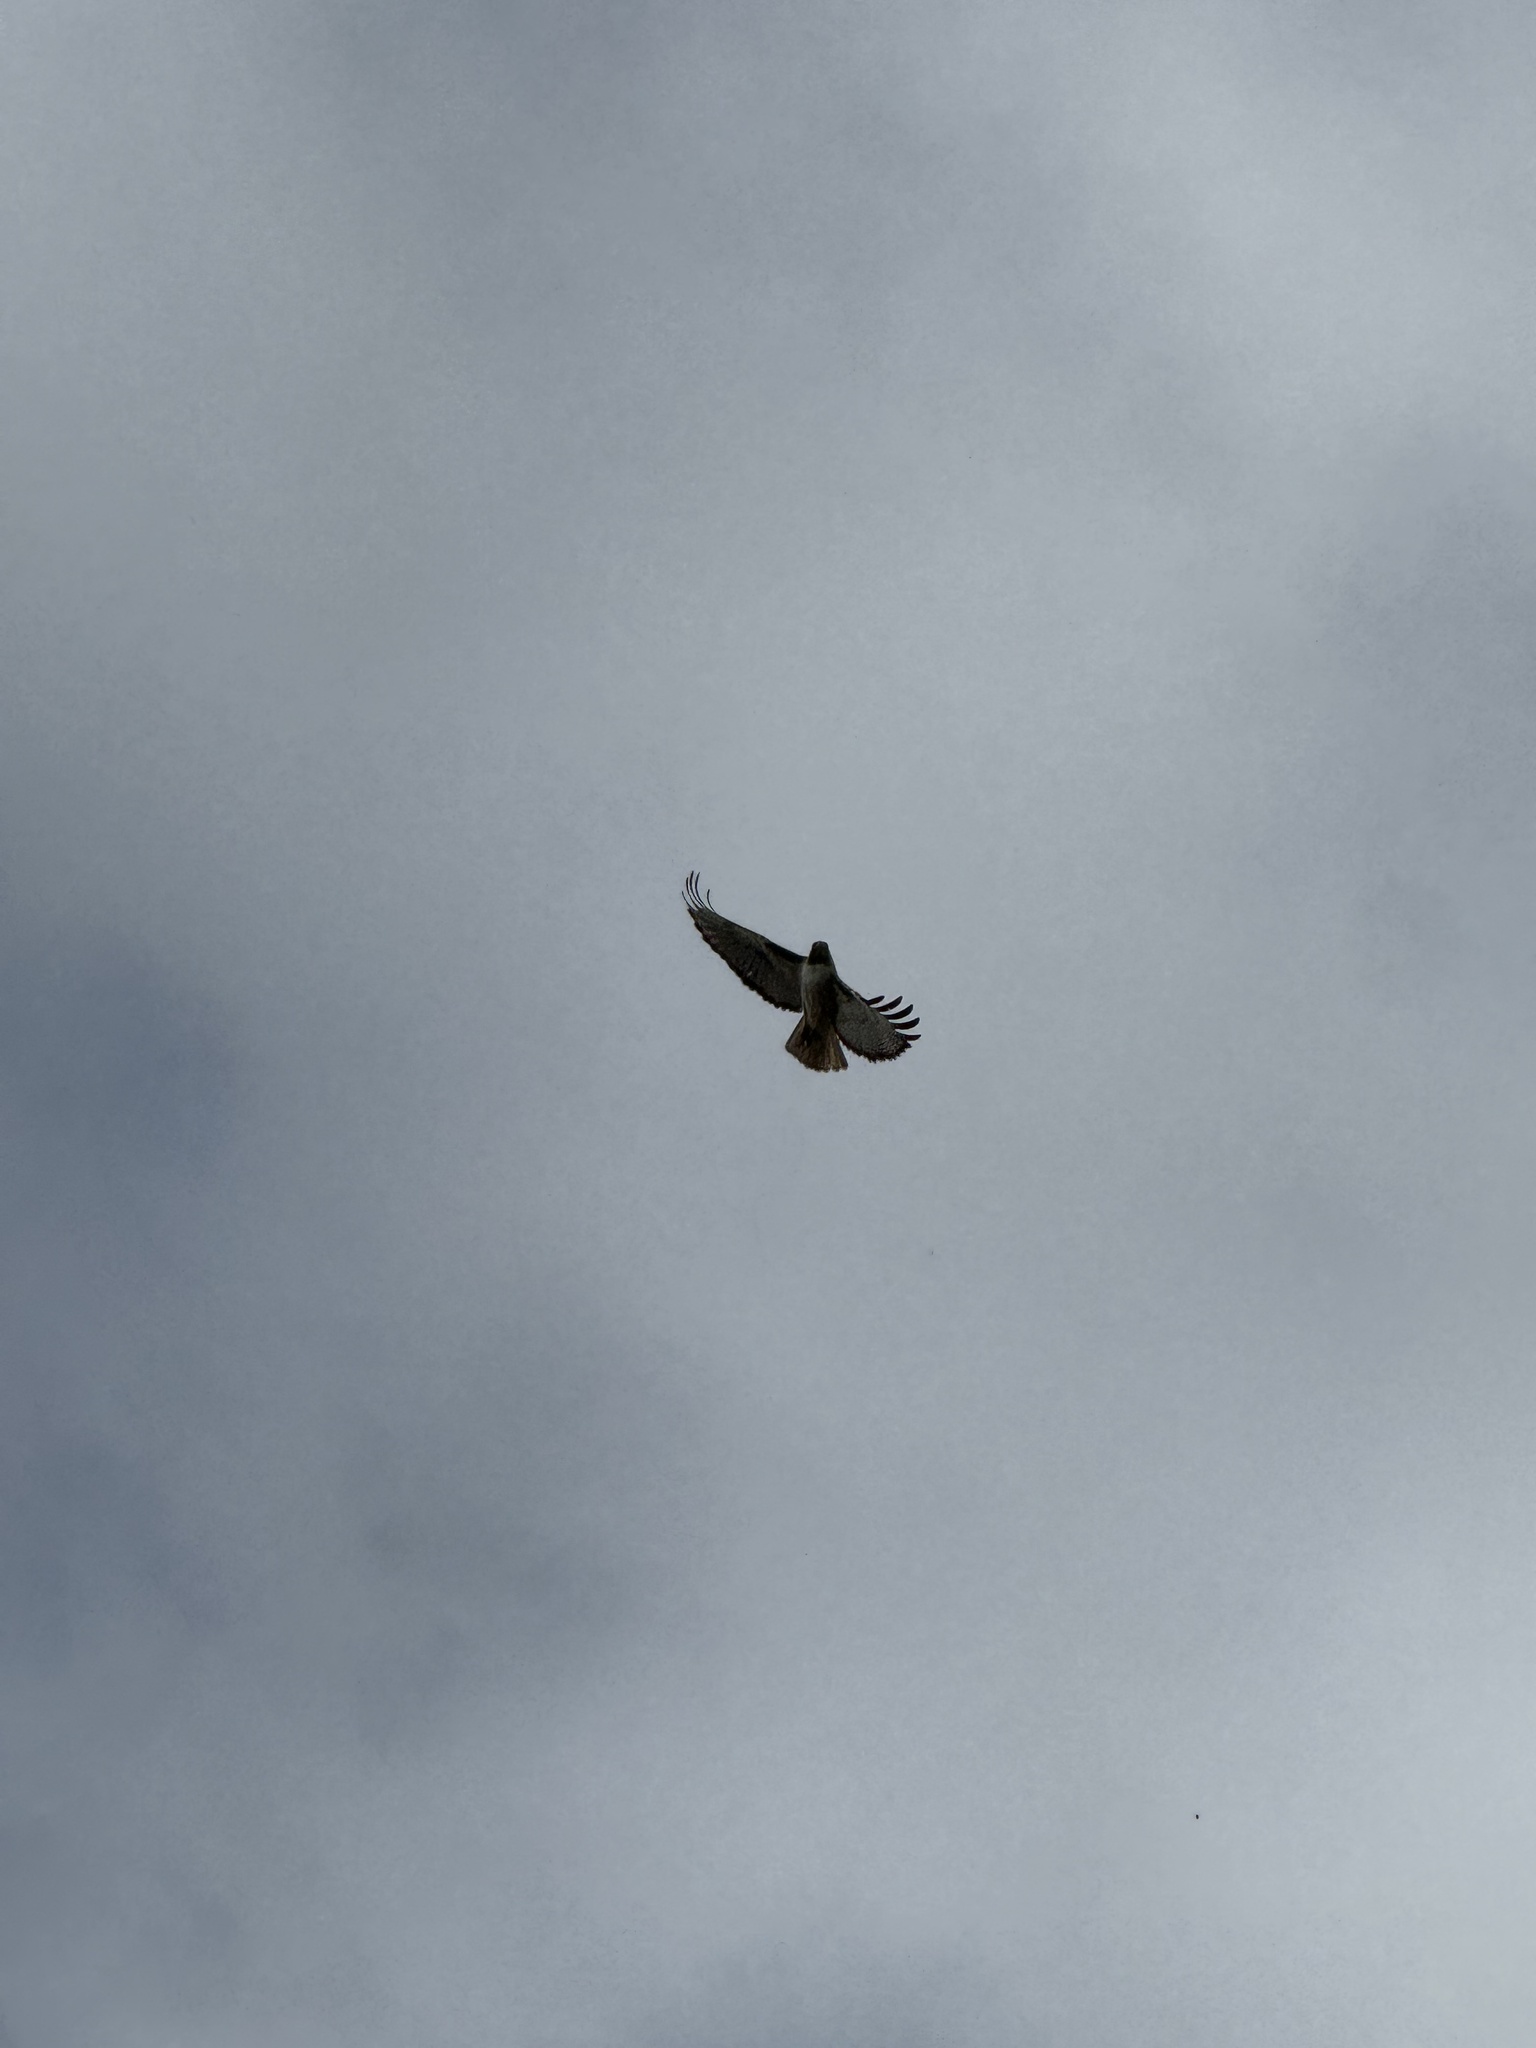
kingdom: Animalia
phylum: Chordata
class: Aves
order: Accipitriformes
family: Accipitridae
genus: Buteo
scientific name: Buteo jamaicensis
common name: Red-tailed hawk
